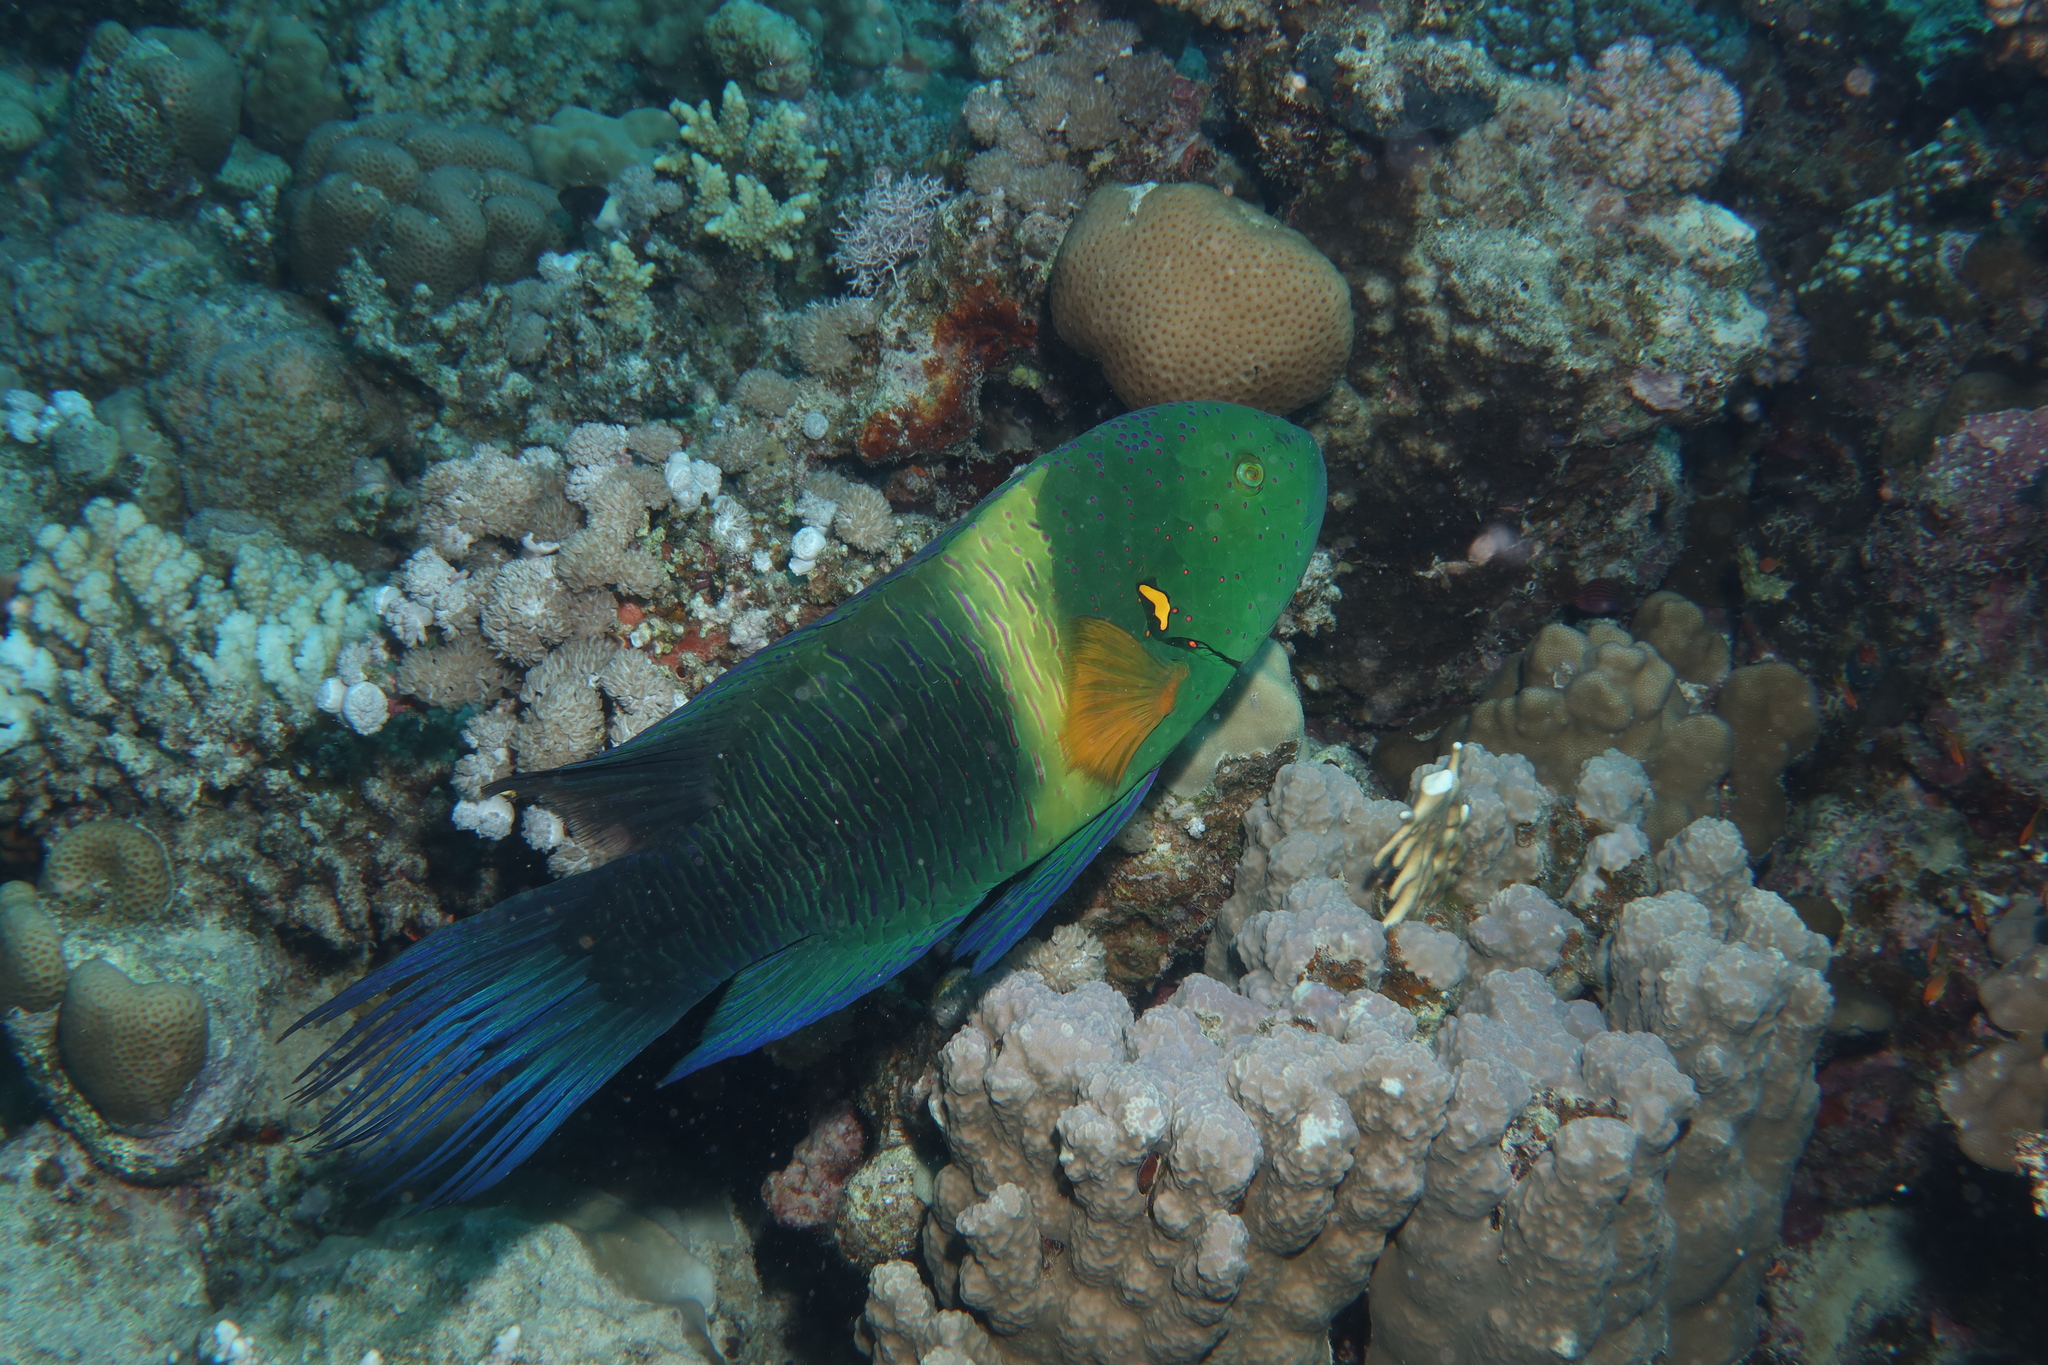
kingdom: Animalia
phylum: Chordata
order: Perciformes
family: Labridae
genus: Cheilinus
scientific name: Cheilinus lunulatus
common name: Broomtail wrasse
